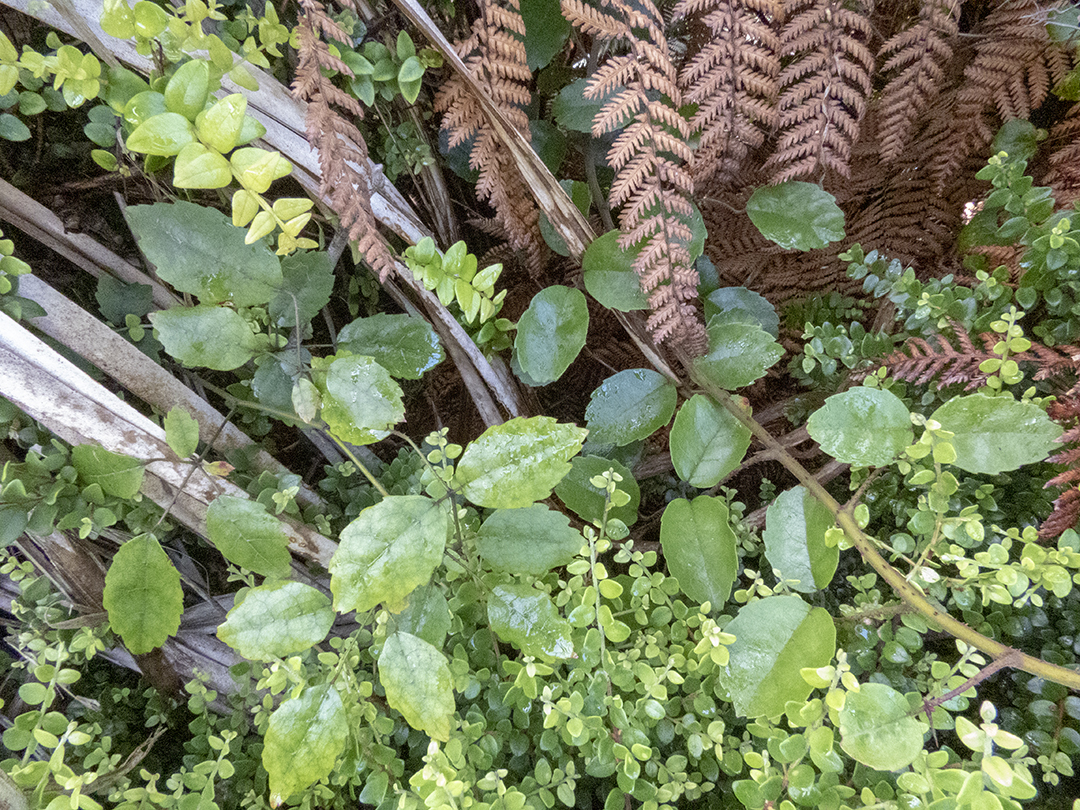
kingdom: Plantae
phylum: Tracheophyta
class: Magnoliopsida
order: Rosales
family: Rosaceae
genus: Rubus
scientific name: Rubus australis
